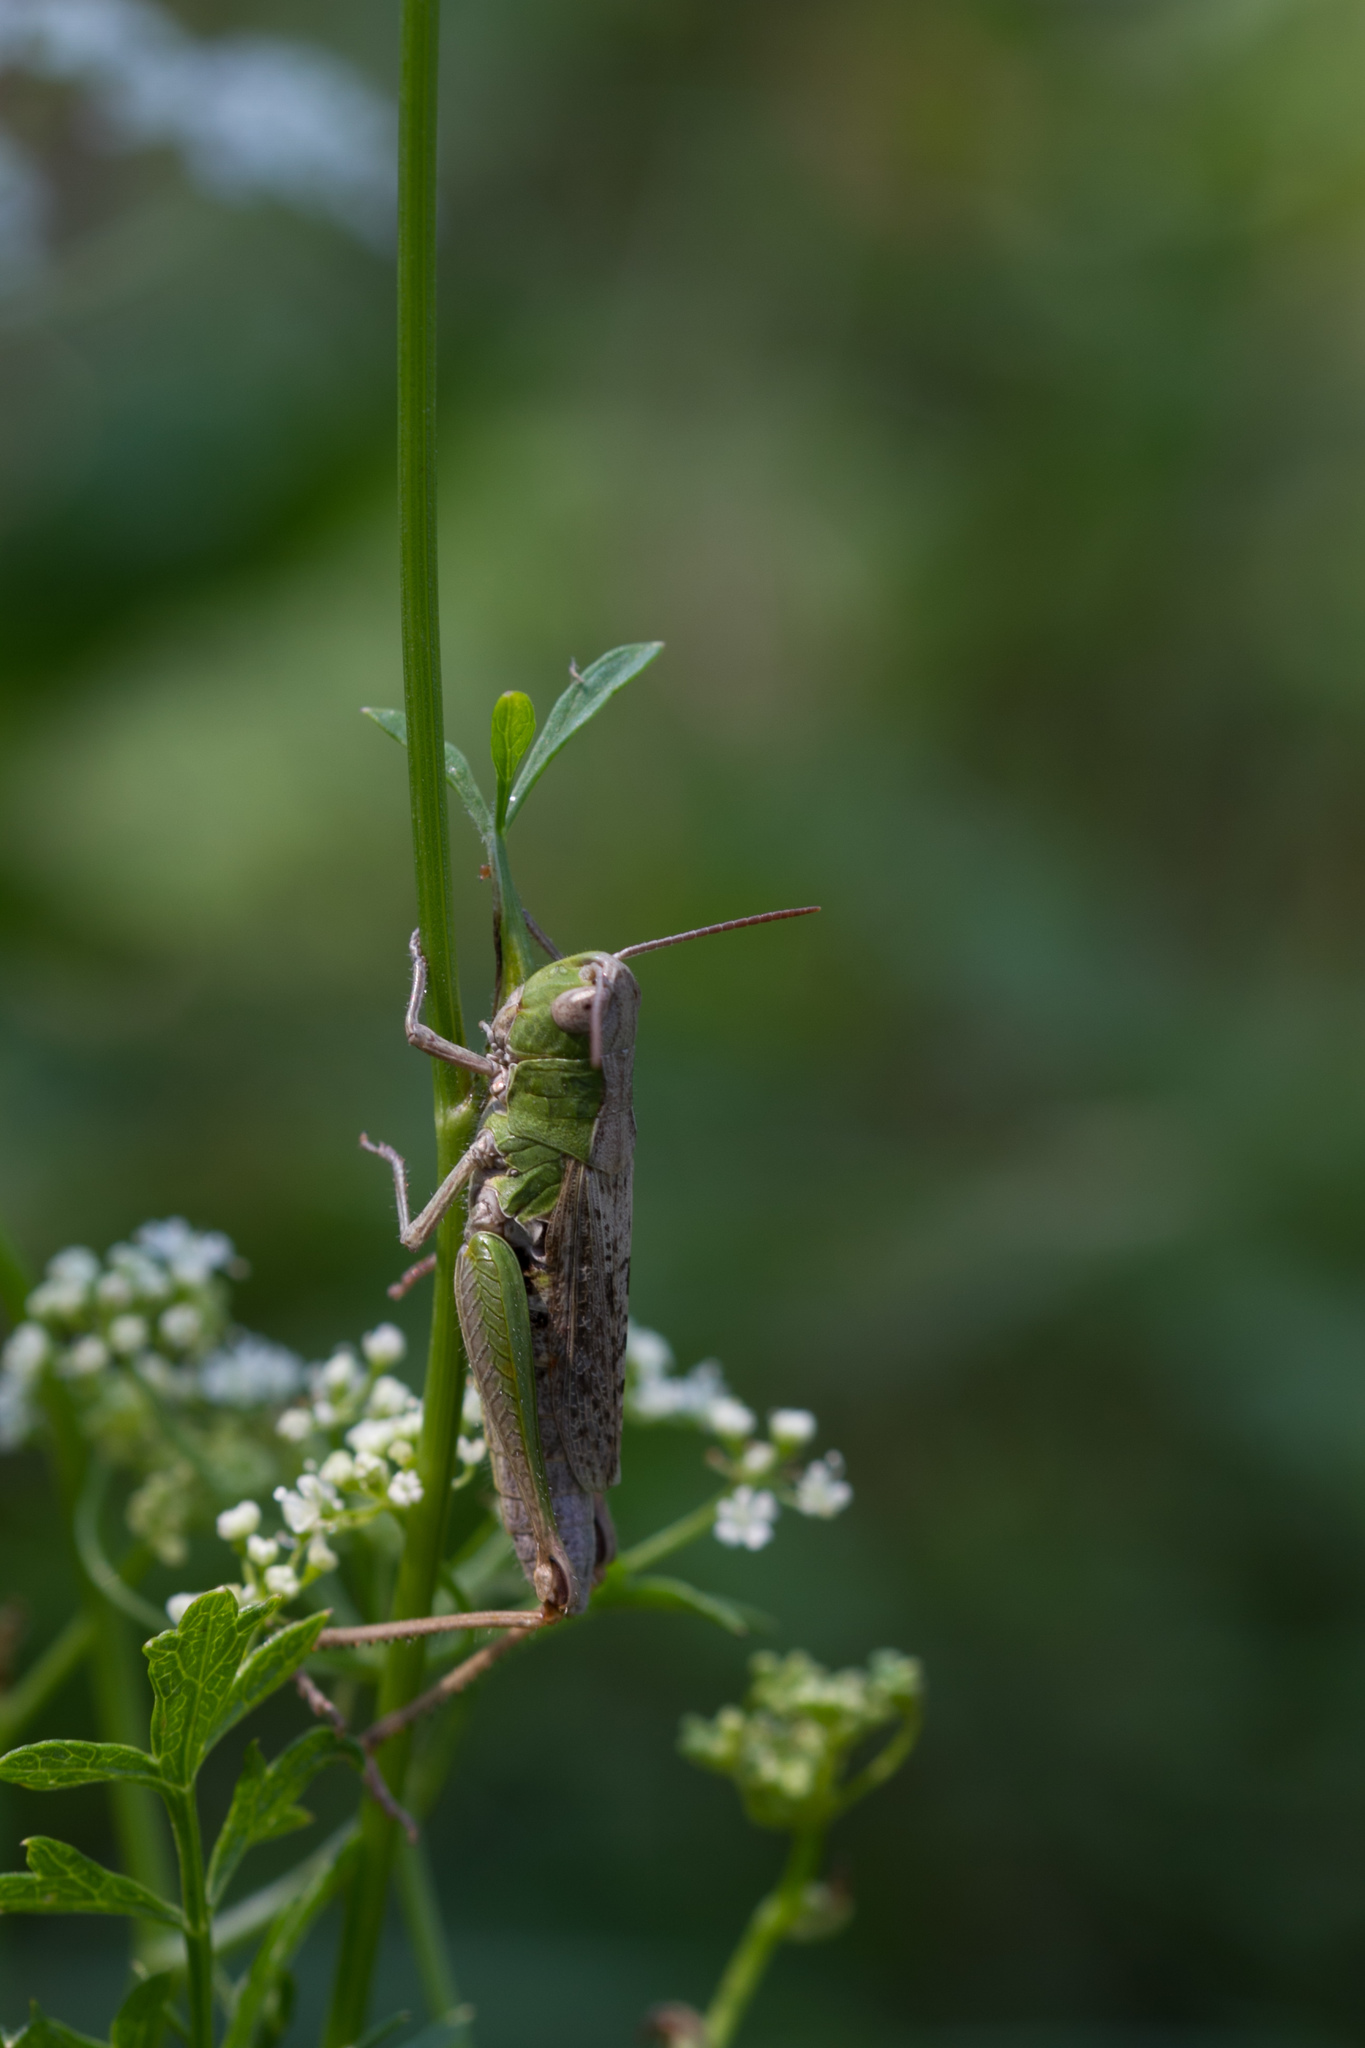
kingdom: Animalia
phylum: Arthropoda
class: Insecta
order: Orthoptera
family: Acrididae
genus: Chorthippus
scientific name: Chorthippus dorsatus
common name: Steppe grasshopper
